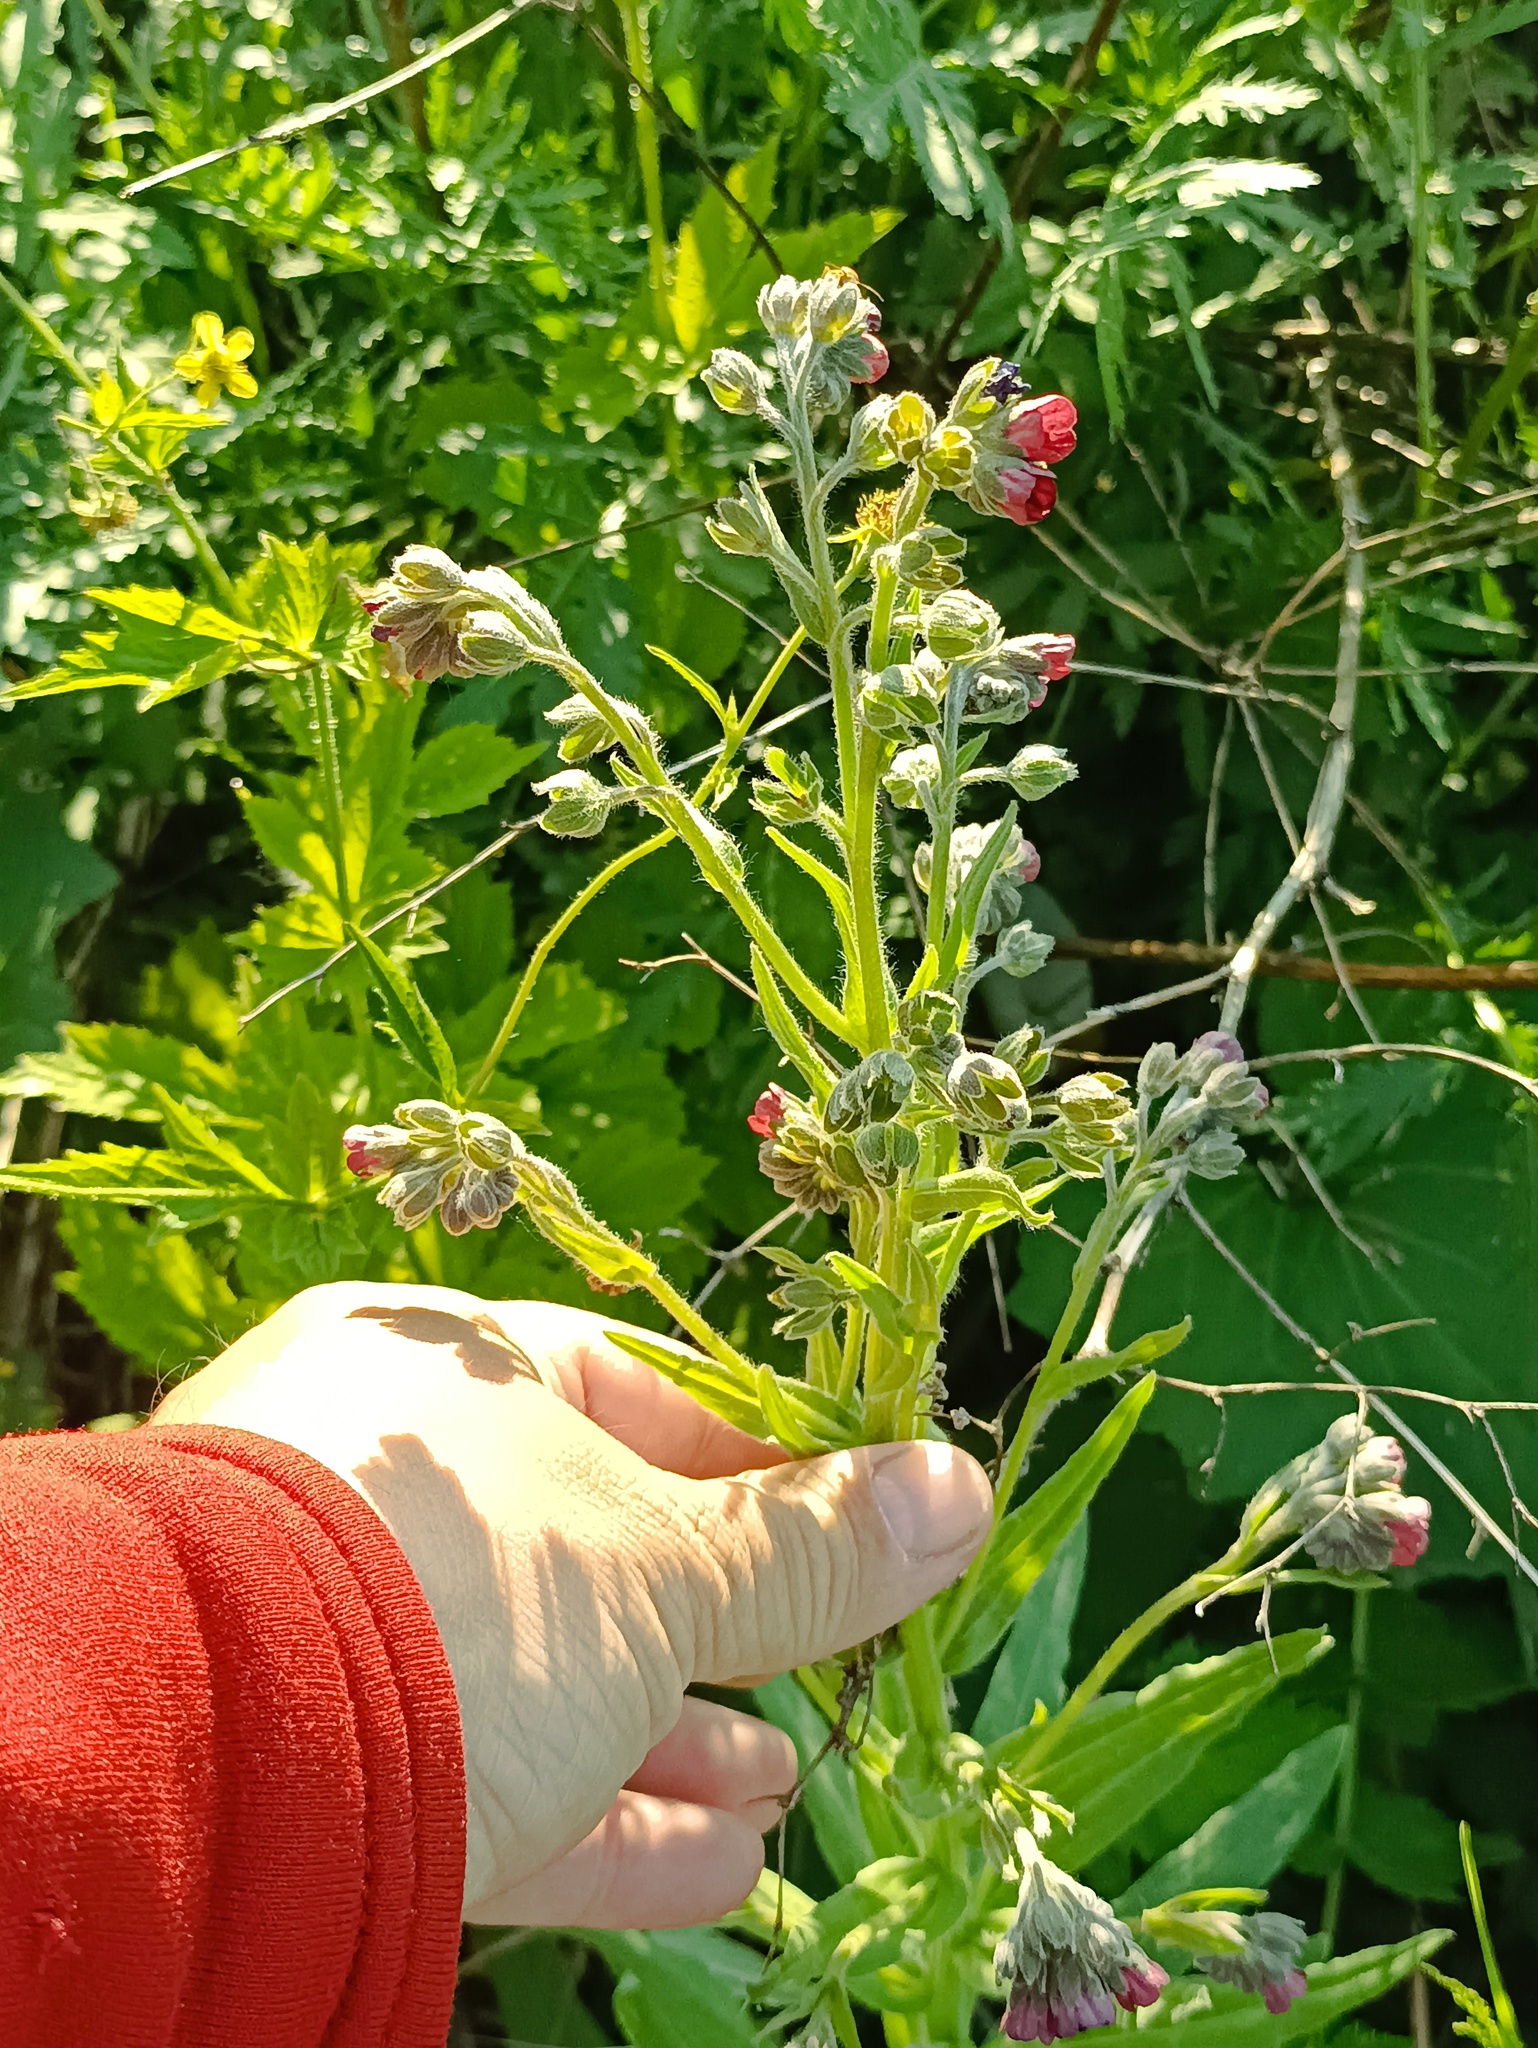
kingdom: Plantae
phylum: Tracheophyta
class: Magnoliopsida
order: Boraginales
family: Boraginaceae
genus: Cynoglossum
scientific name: Cynoglossum officinale
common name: Hound's-tongue
